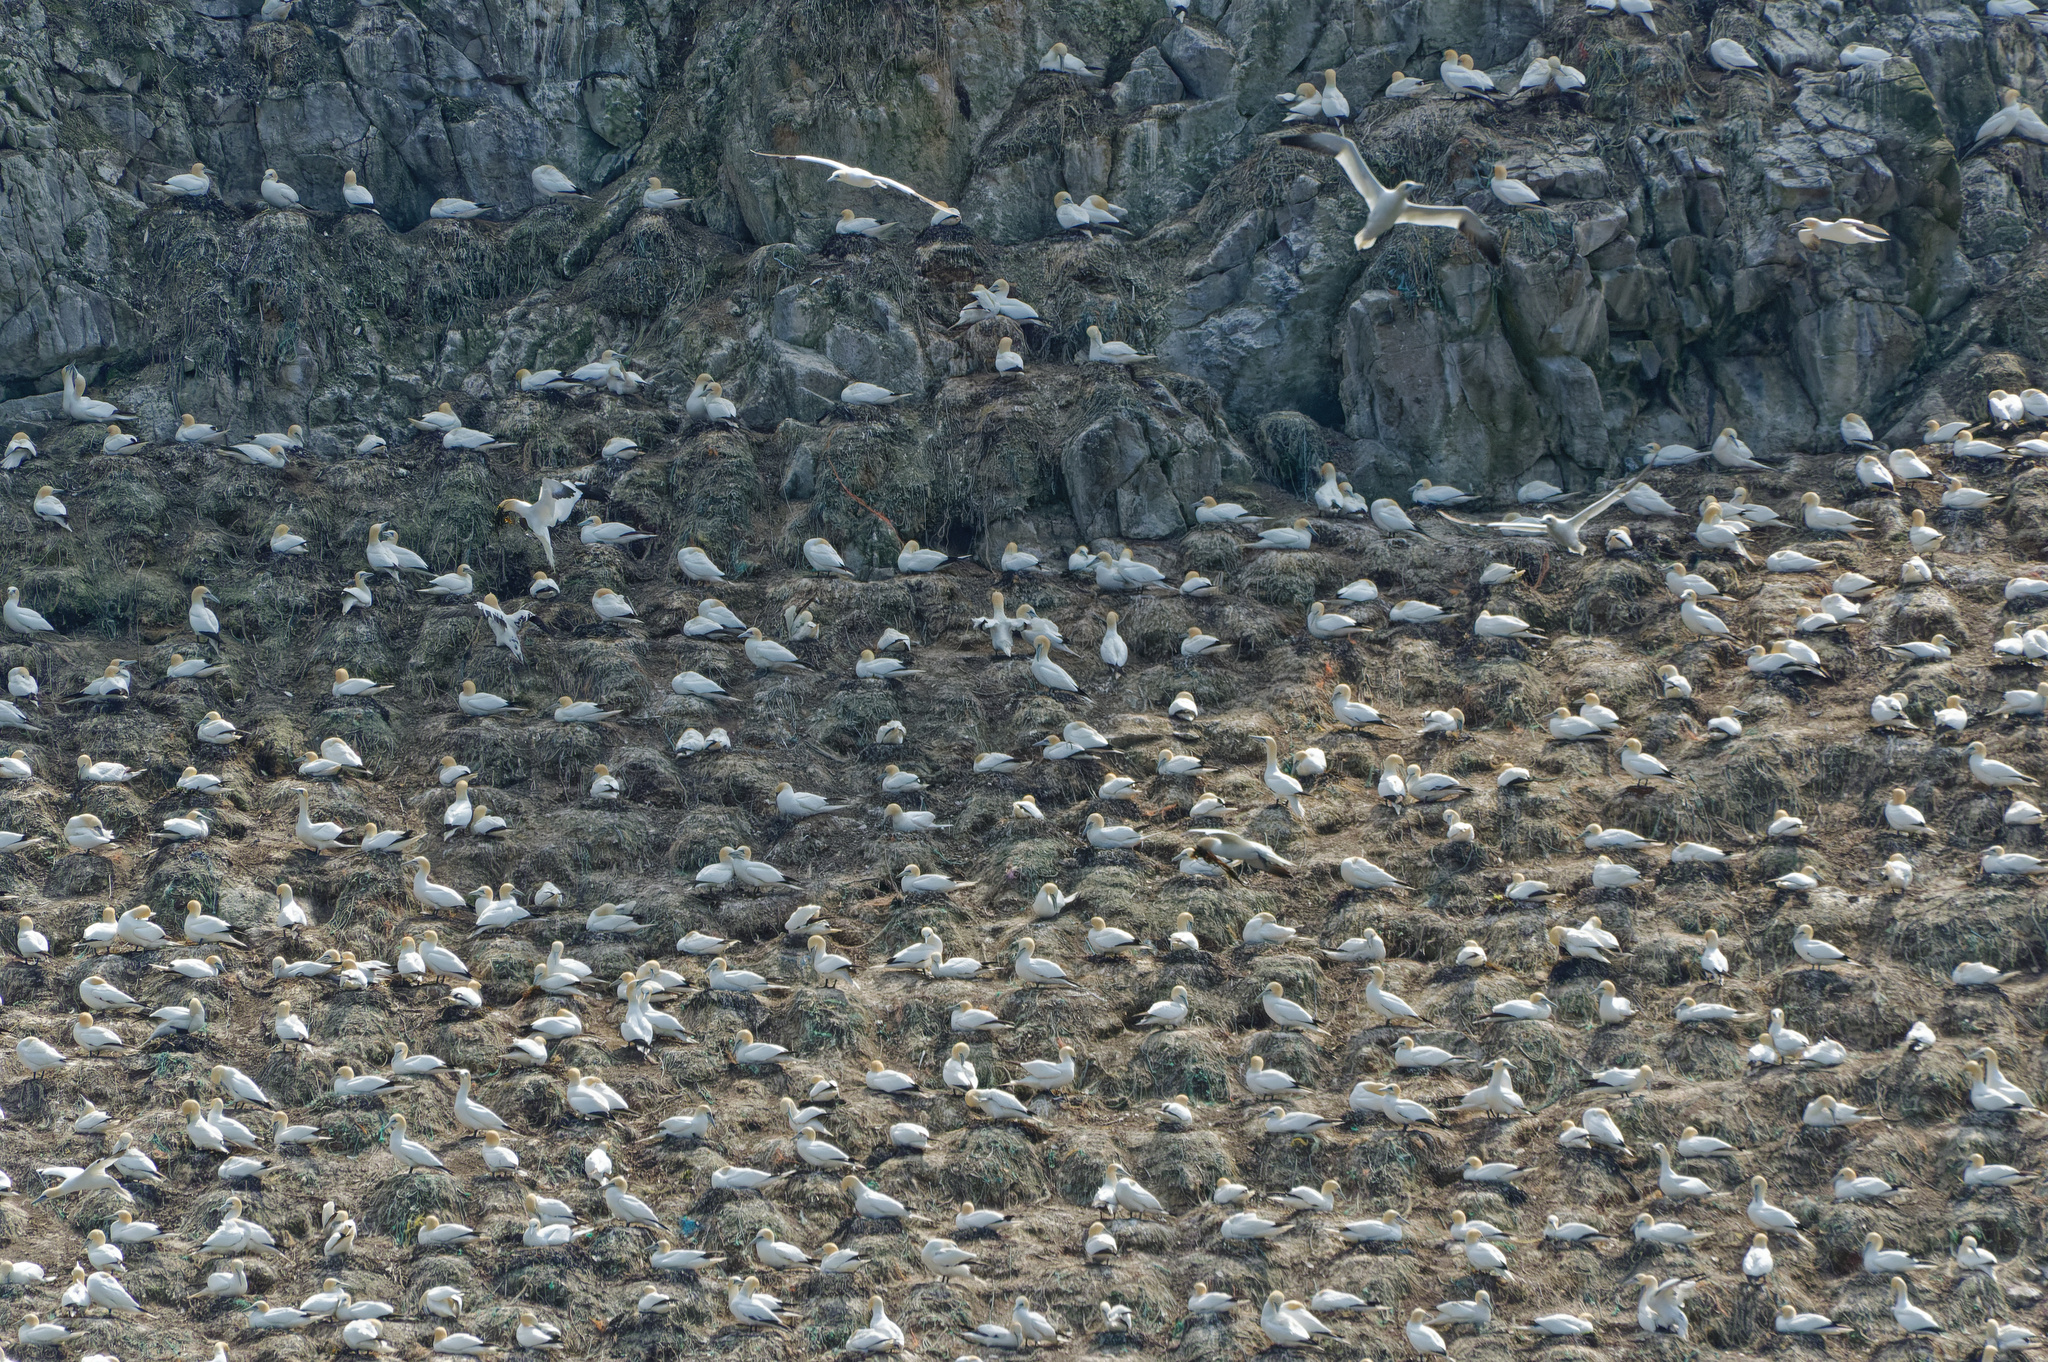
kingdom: Animalia
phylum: Chordata
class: Aves
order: Suliformes
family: Sulidae
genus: Morus
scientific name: Morus bassanus
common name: Northern gannet
